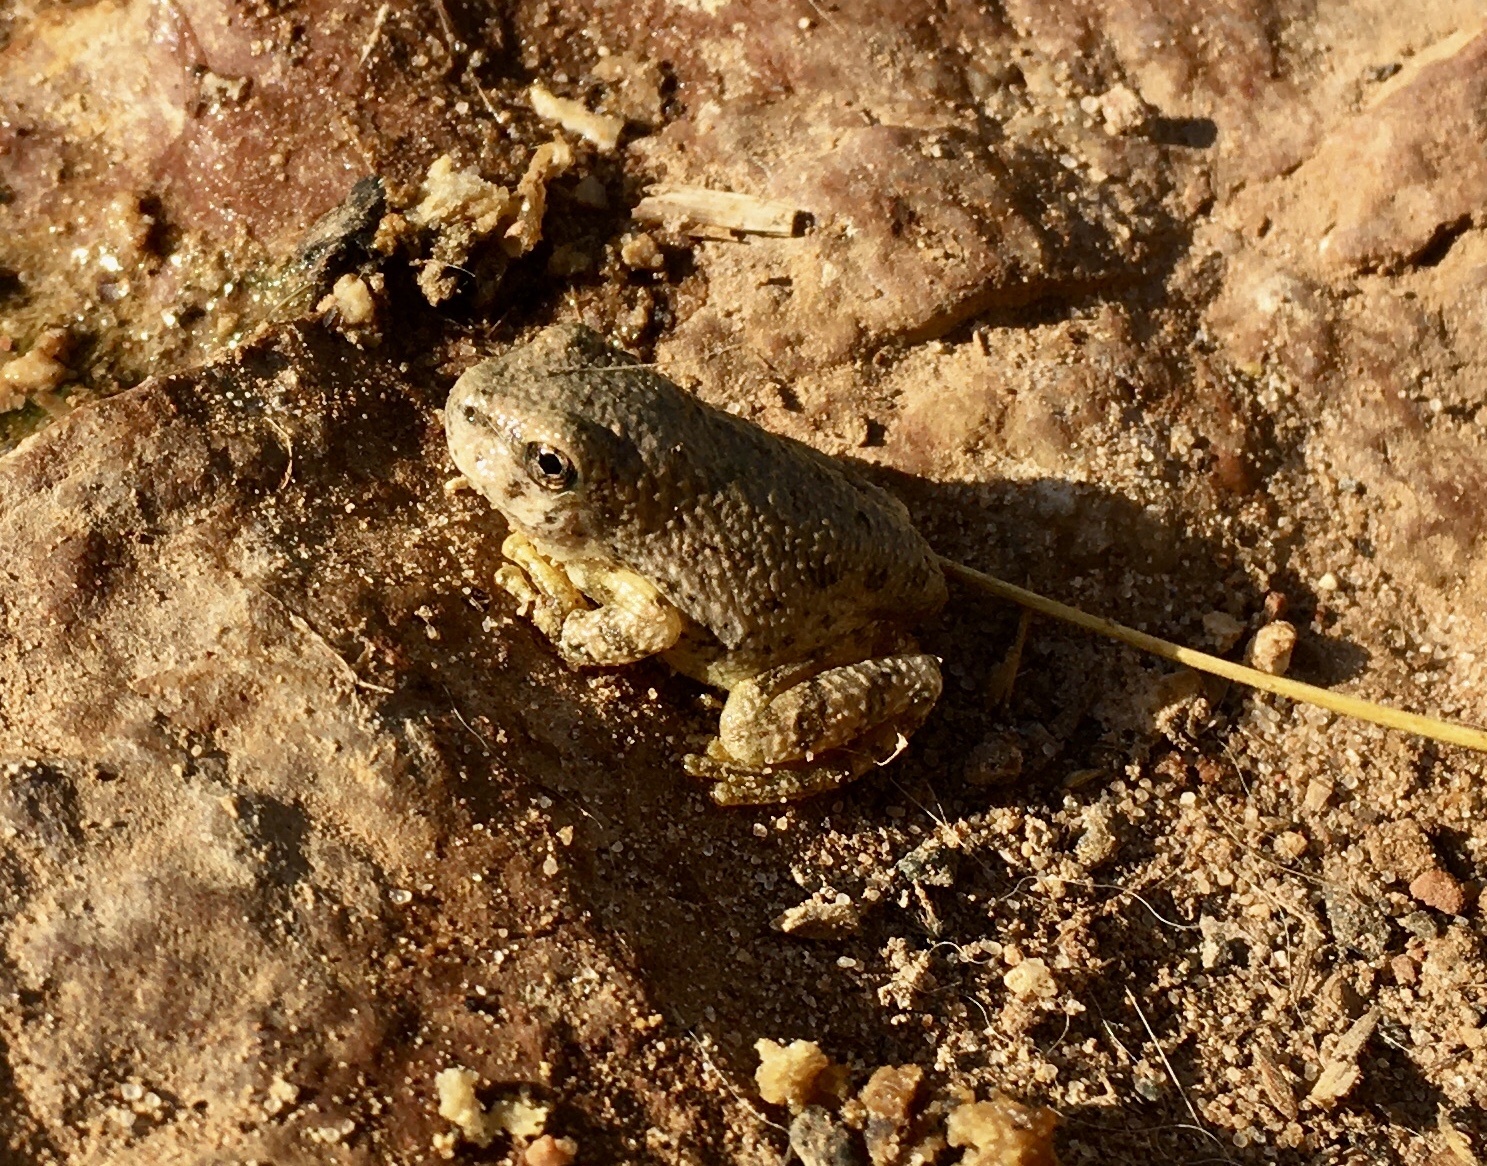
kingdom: Animalia
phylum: Chordata
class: Amphibia
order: Anura
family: Hylidae
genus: Dryophytes
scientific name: Dryophytes arenicolor
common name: Canyon treefrog
